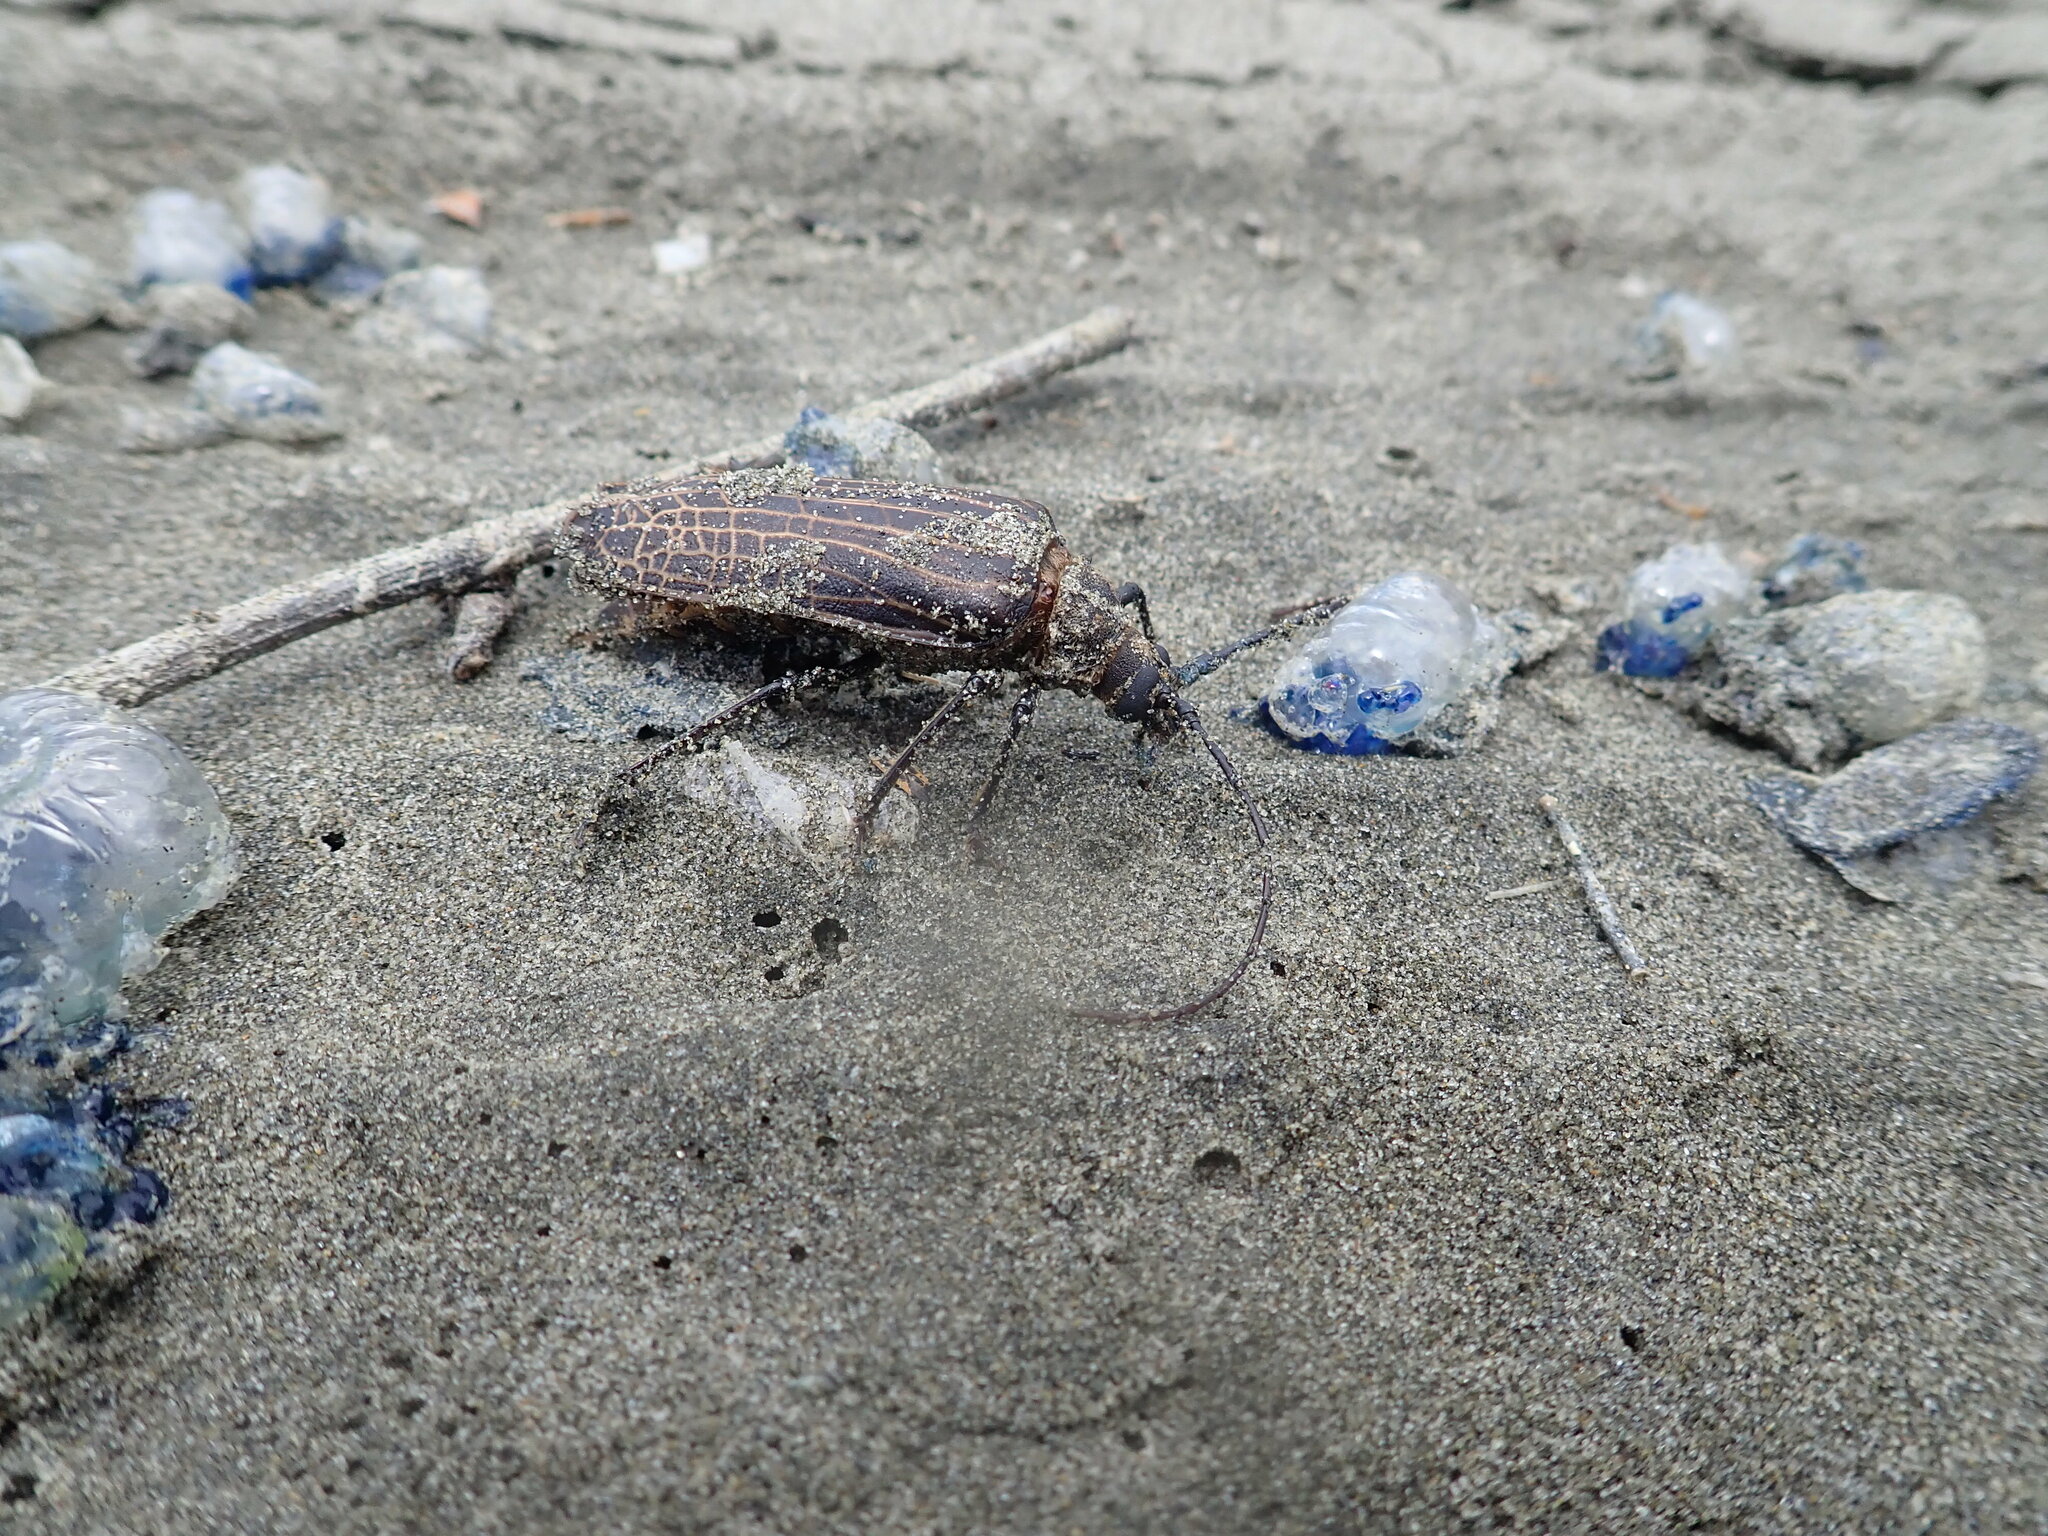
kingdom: Animalia
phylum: Arthropoda
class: Insecta
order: Coleoptera
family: Cerambycidae
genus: Prionoplus
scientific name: Prionoplus reticularis
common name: Huhu beetle
